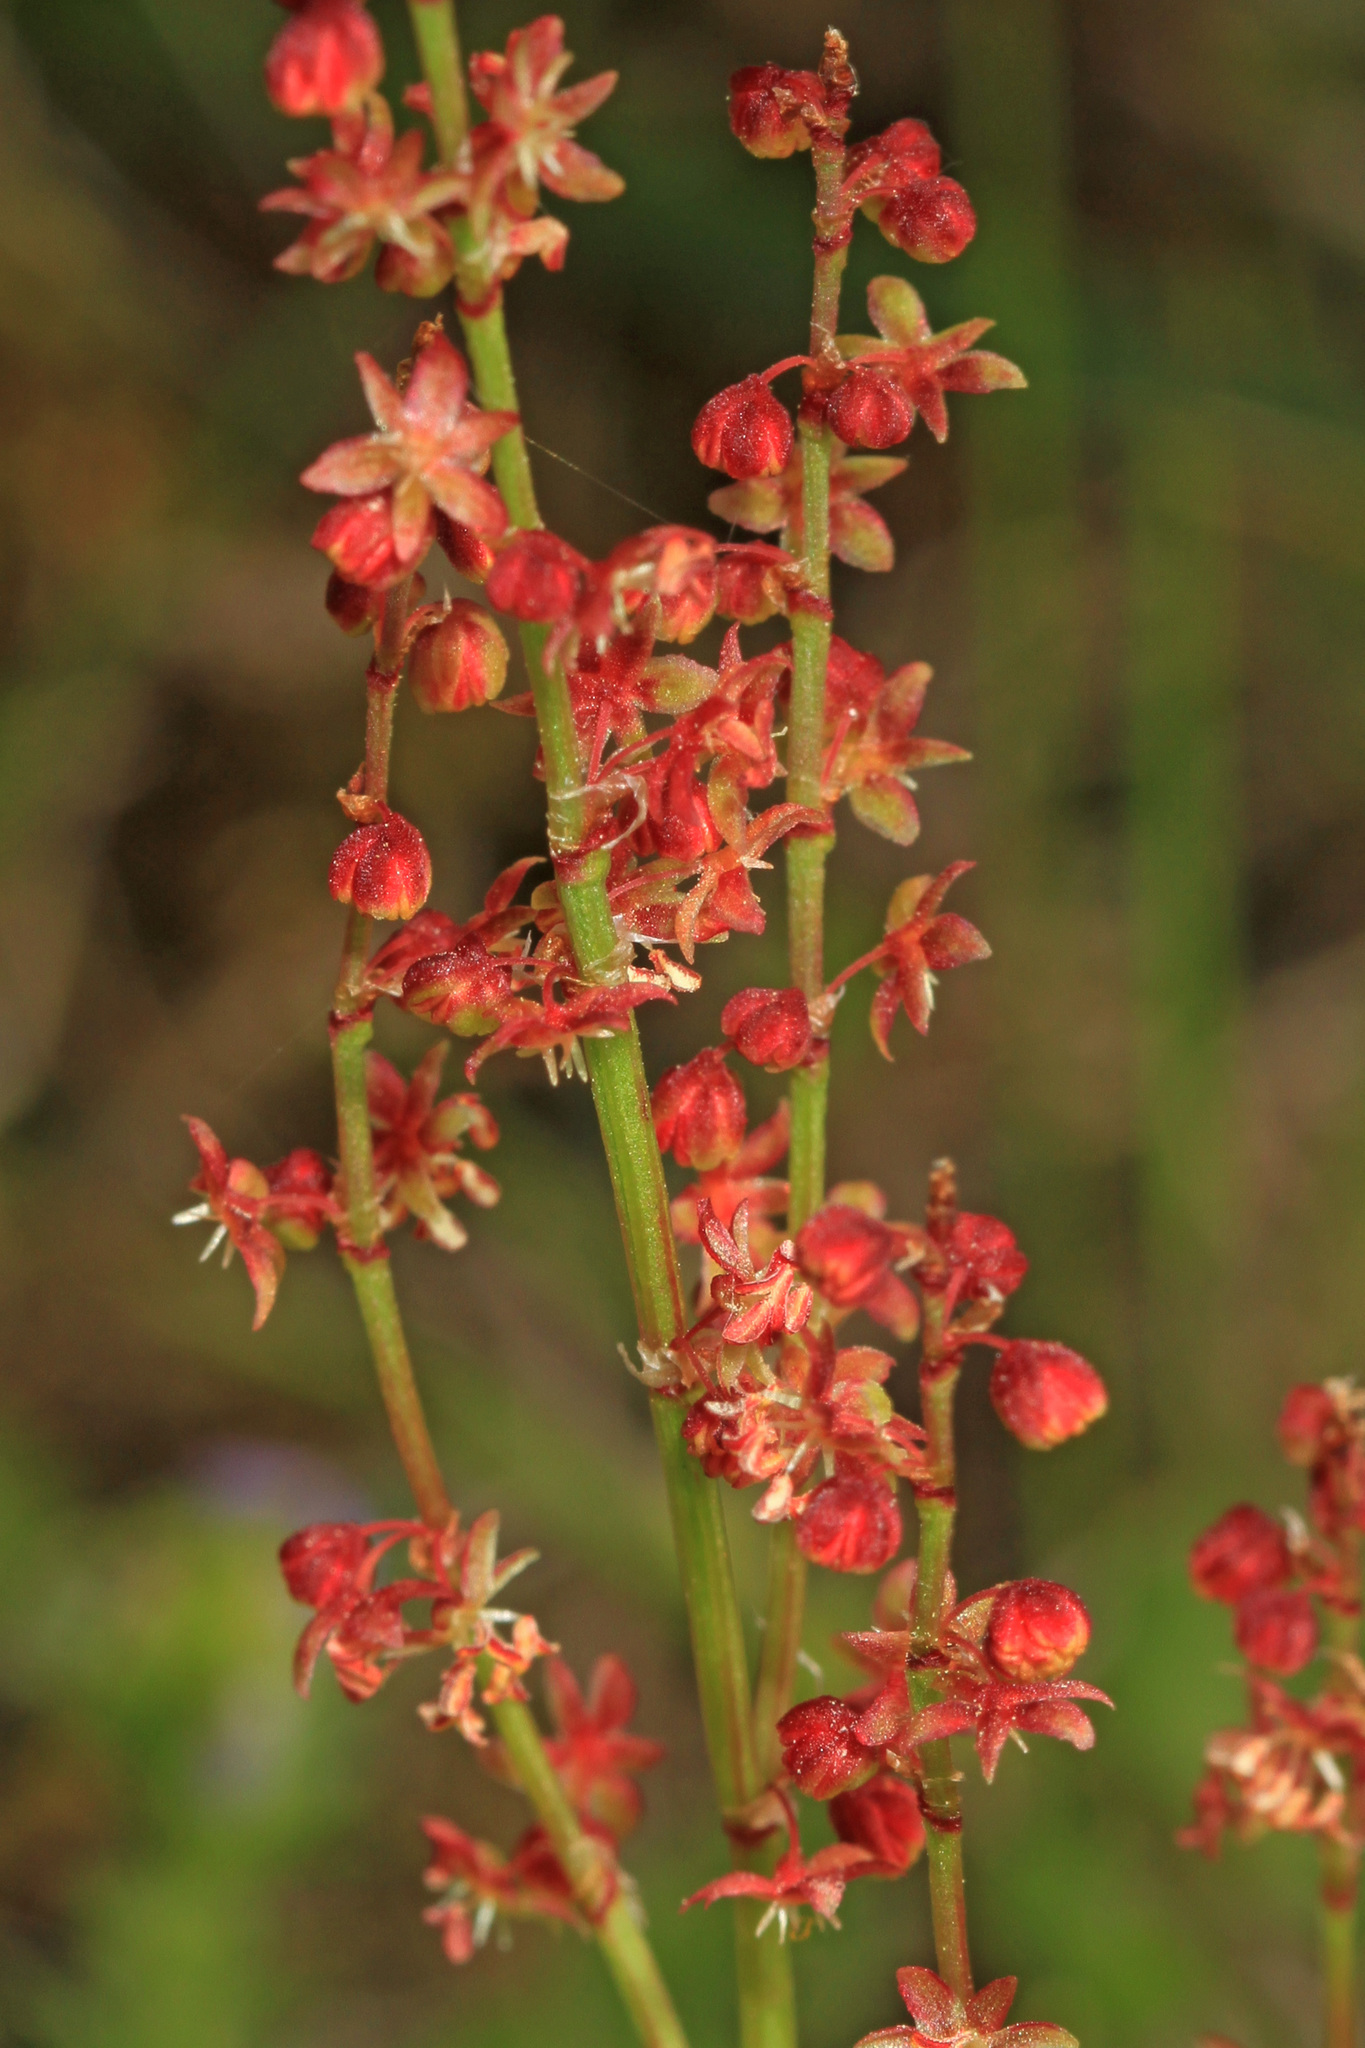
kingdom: Plantae
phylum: Tracheophyta
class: Magnoliopsida
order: Caryophyllales
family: Polygonaceae
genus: Rumex
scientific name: Rumex acetosella
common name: Common sheep sorrel
